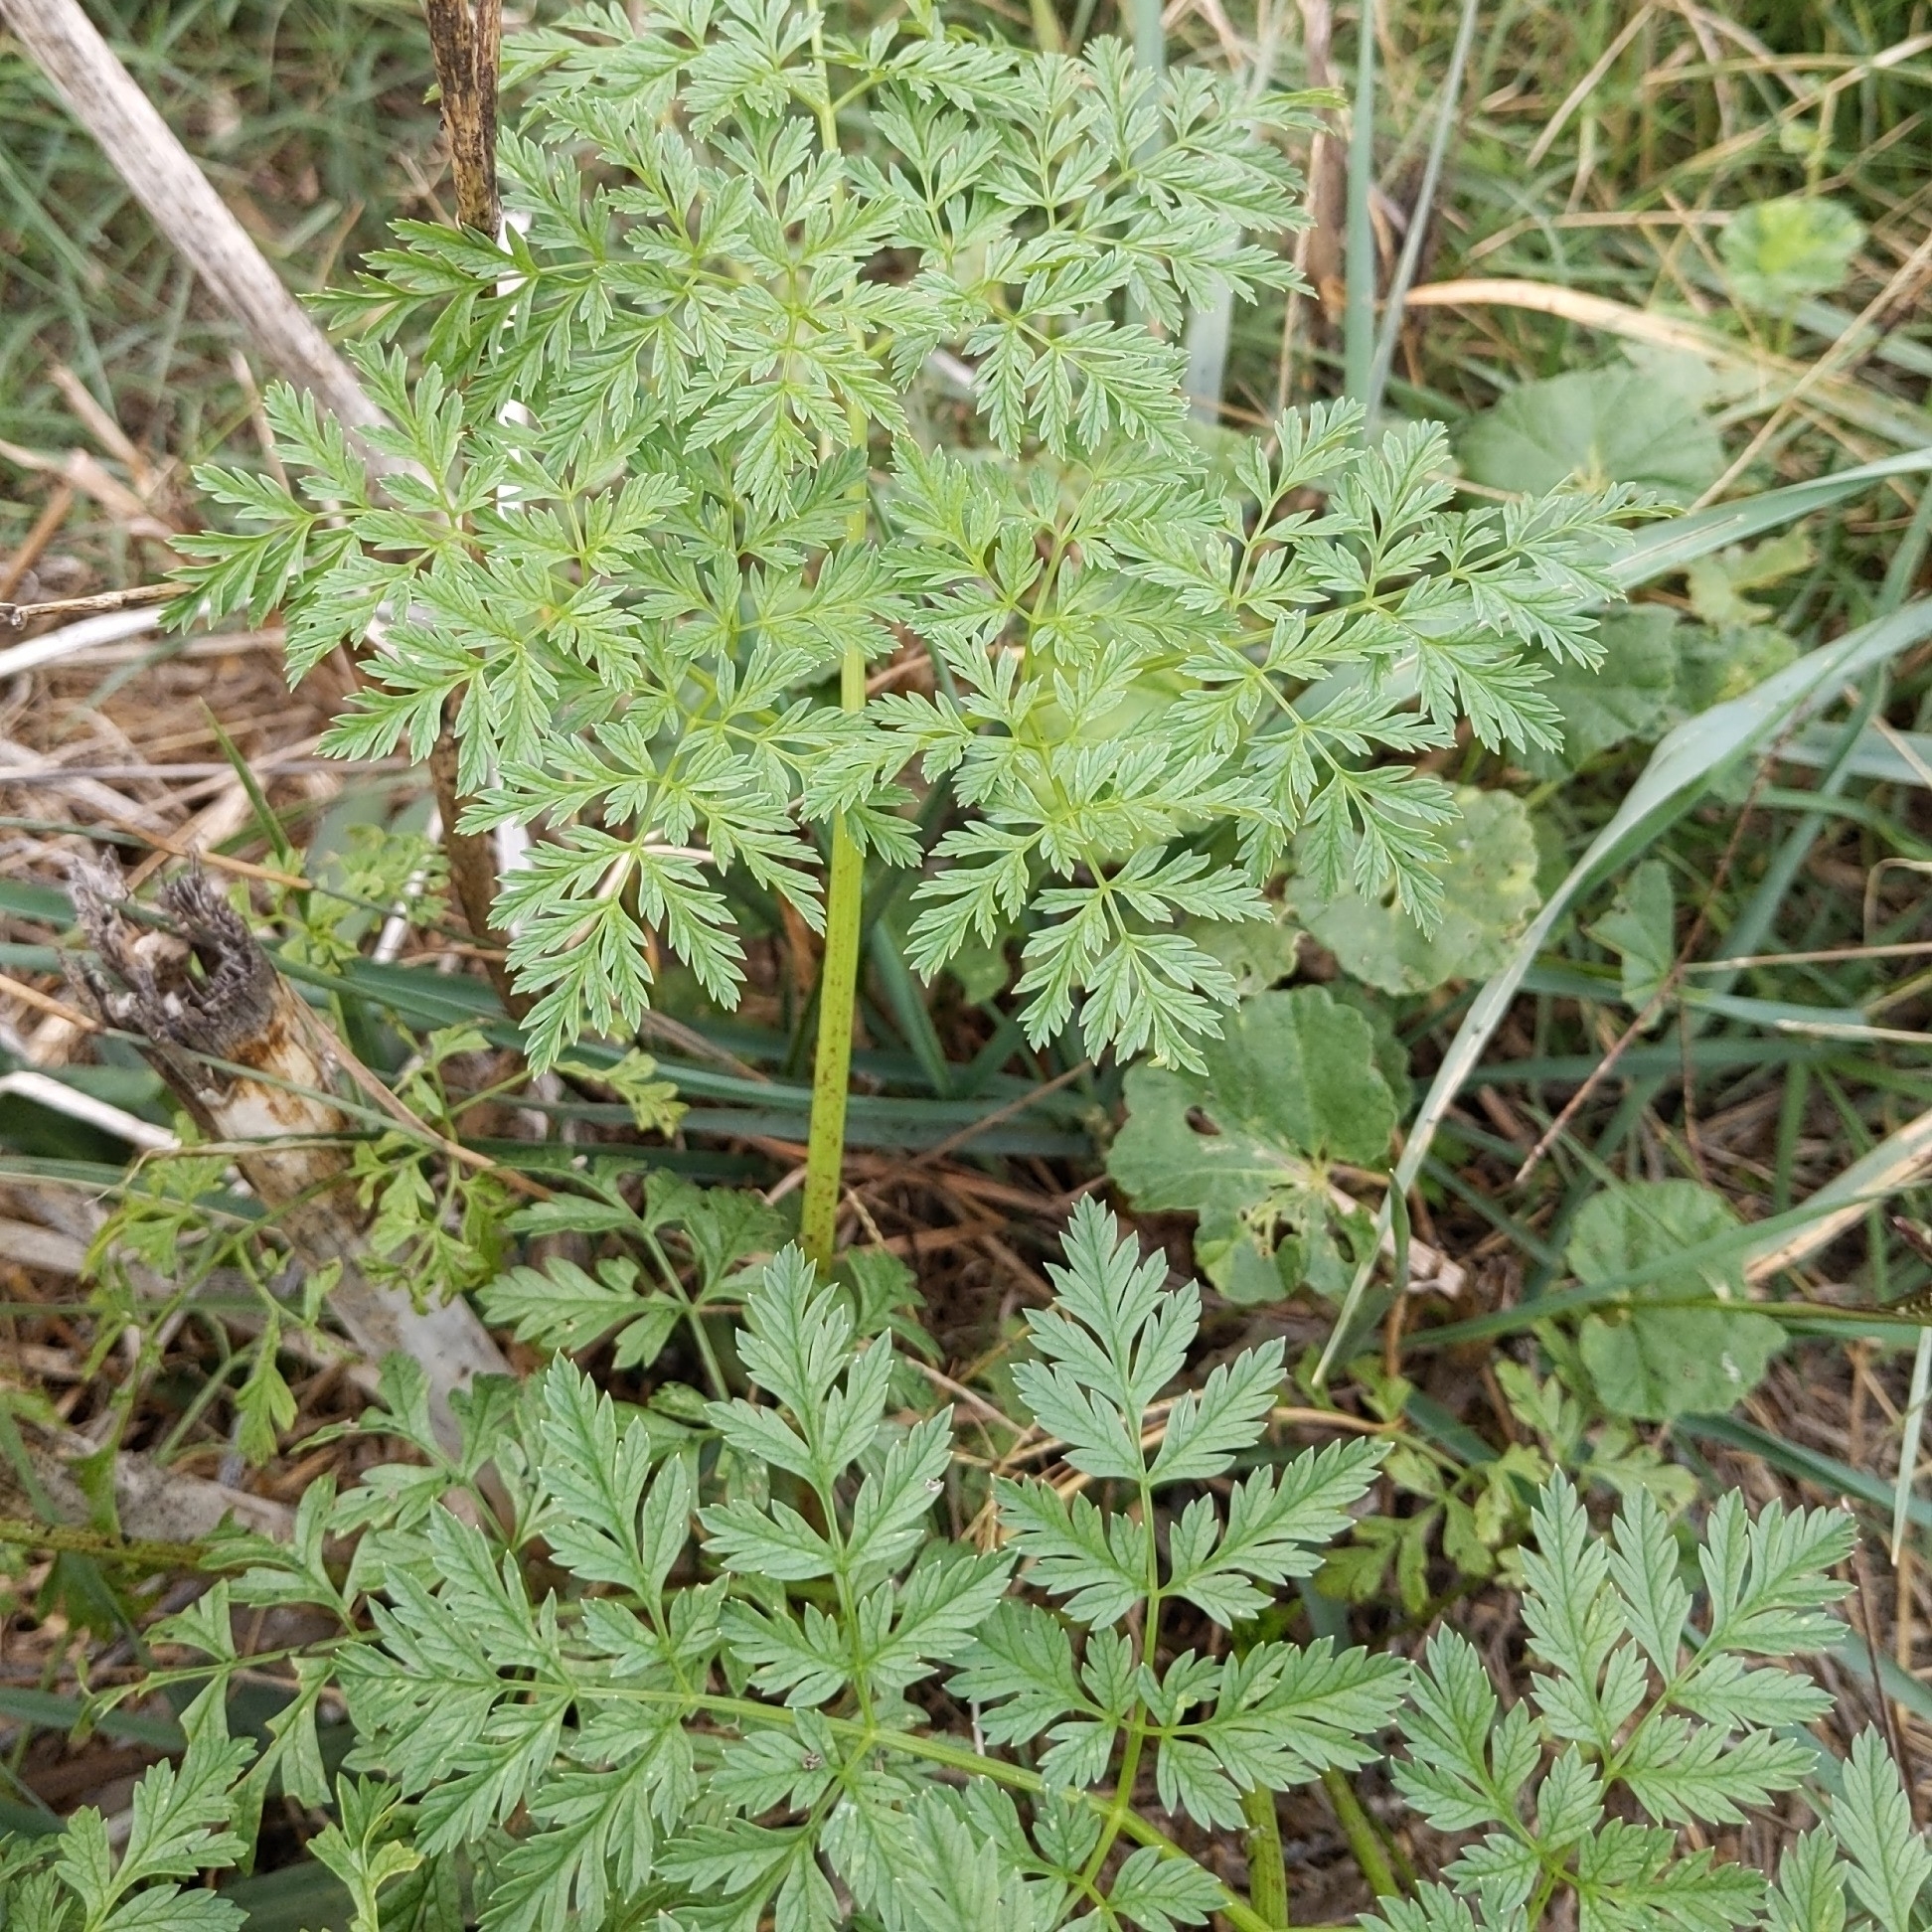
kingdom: Plantae
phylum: Tracheophyta
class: Magnoliopsida
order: Apiales
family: Apiaceae
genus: Conium
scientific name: Conium maculatum
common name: Hemlock
